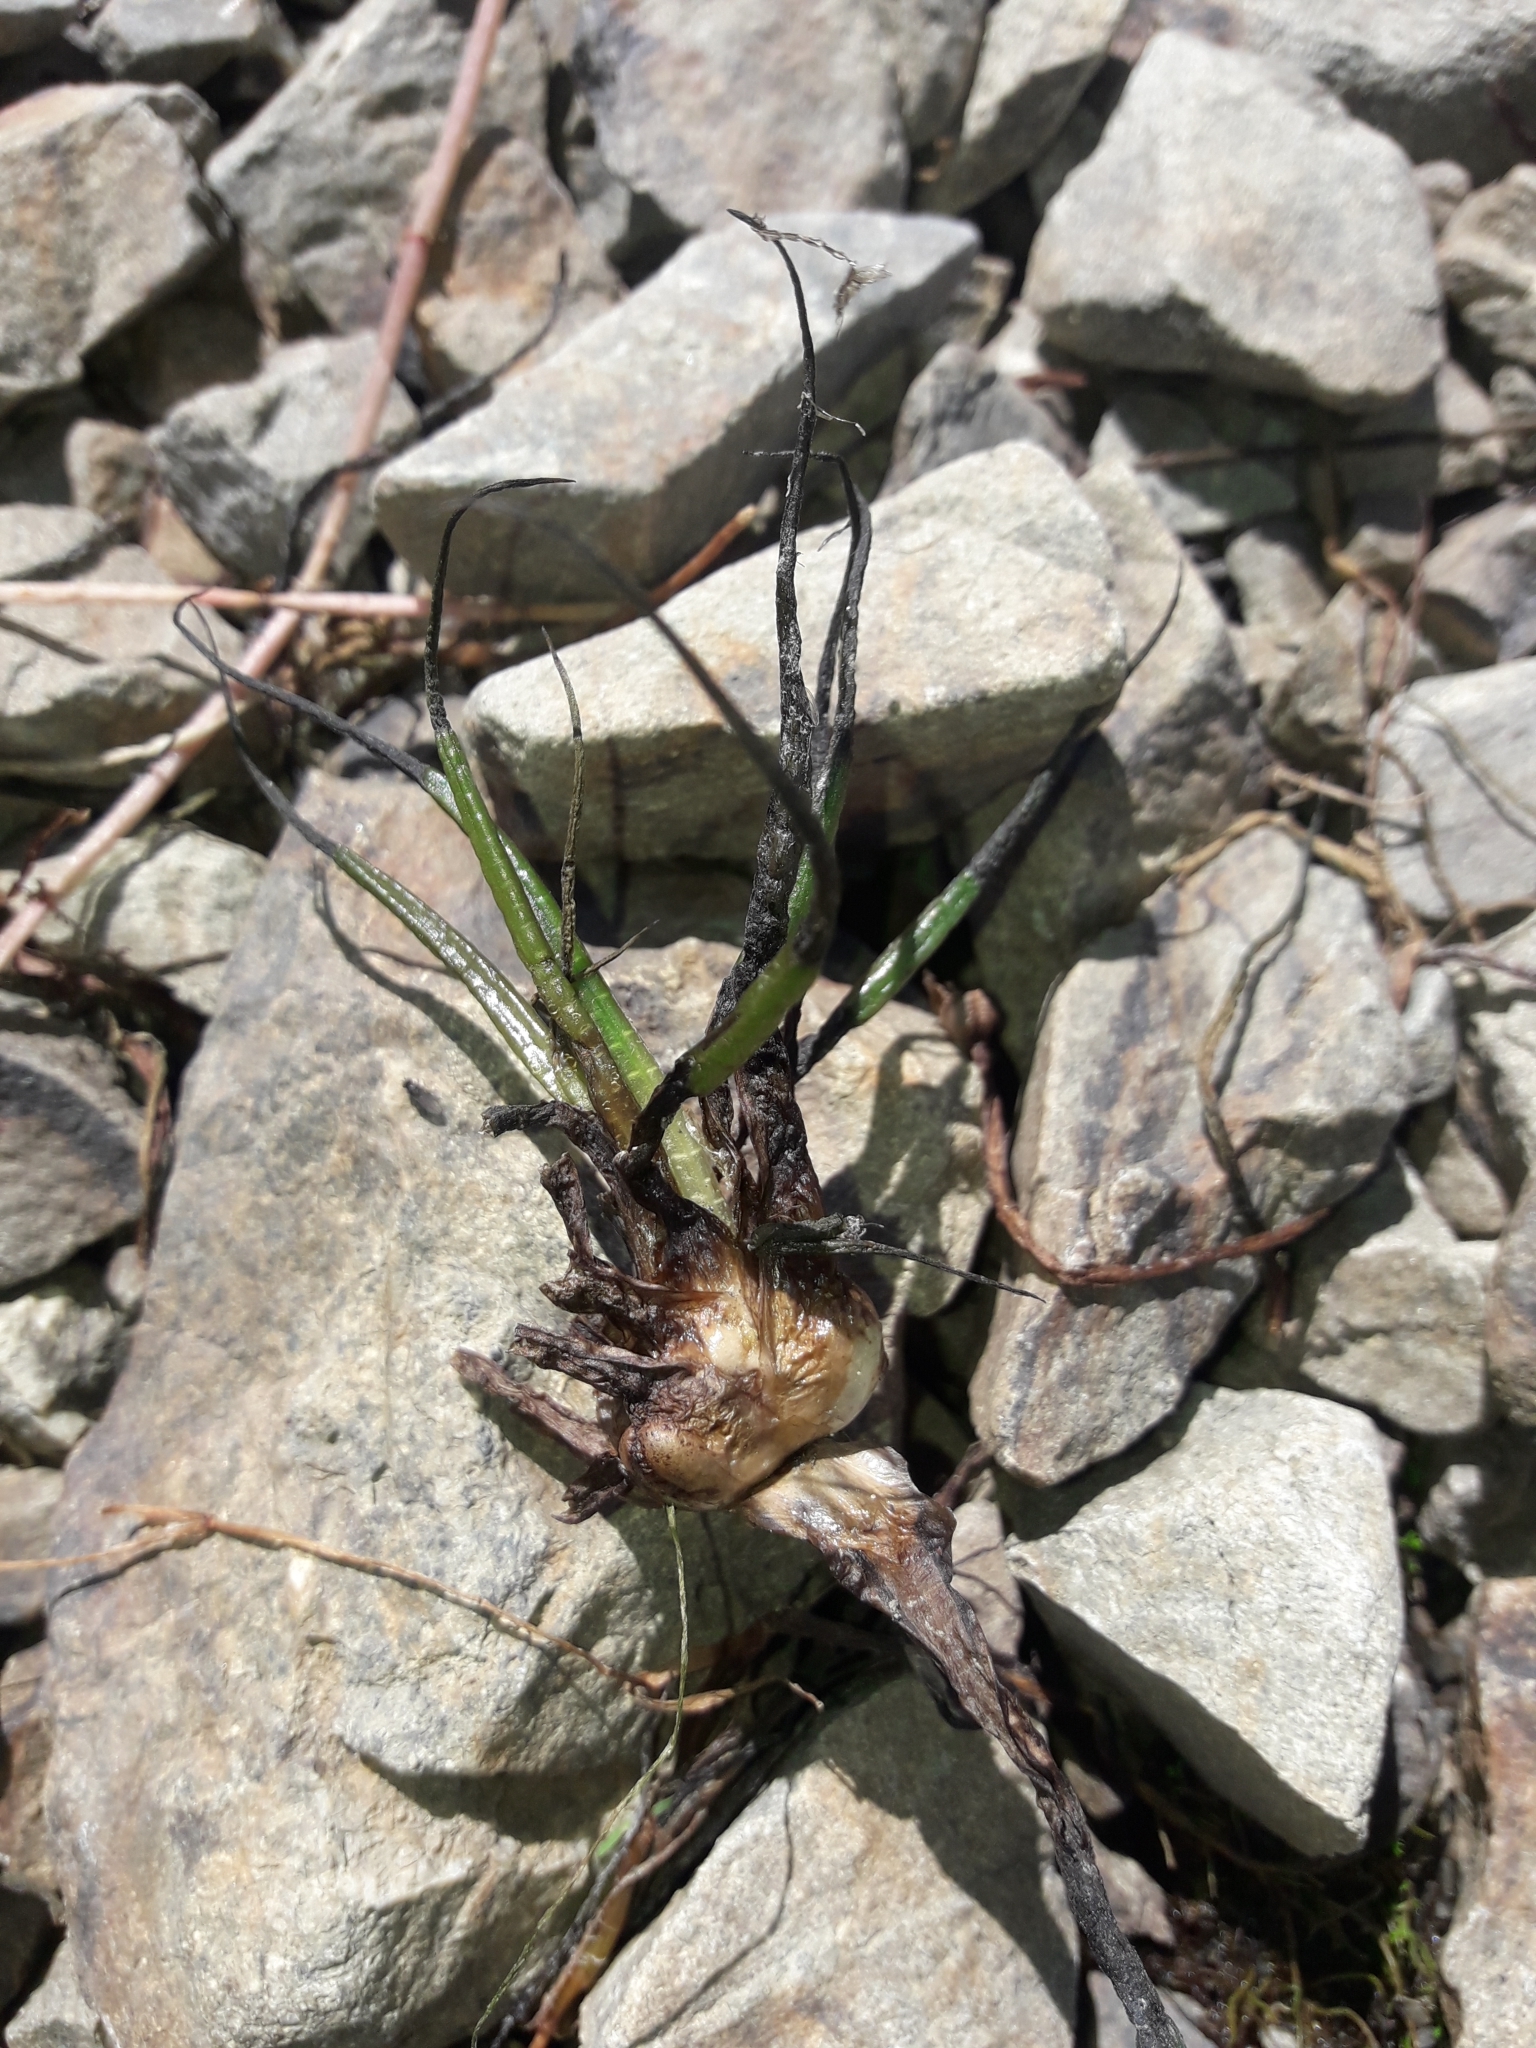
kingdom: Plantae
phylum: Tracheophyta
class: Lycopodiopsida
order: Isoetales
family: Isoetaceae
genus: Isoetes
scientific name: Isoetes alpina
